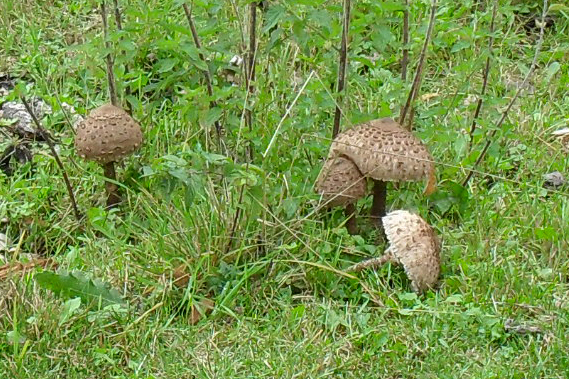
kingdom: Fungi
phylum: Basidiomycota
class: Agaricomycetes
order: Agaricales
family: Agaricaceae
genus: Macrolepiota
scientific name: Macrolepiota procera
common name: Parasol
